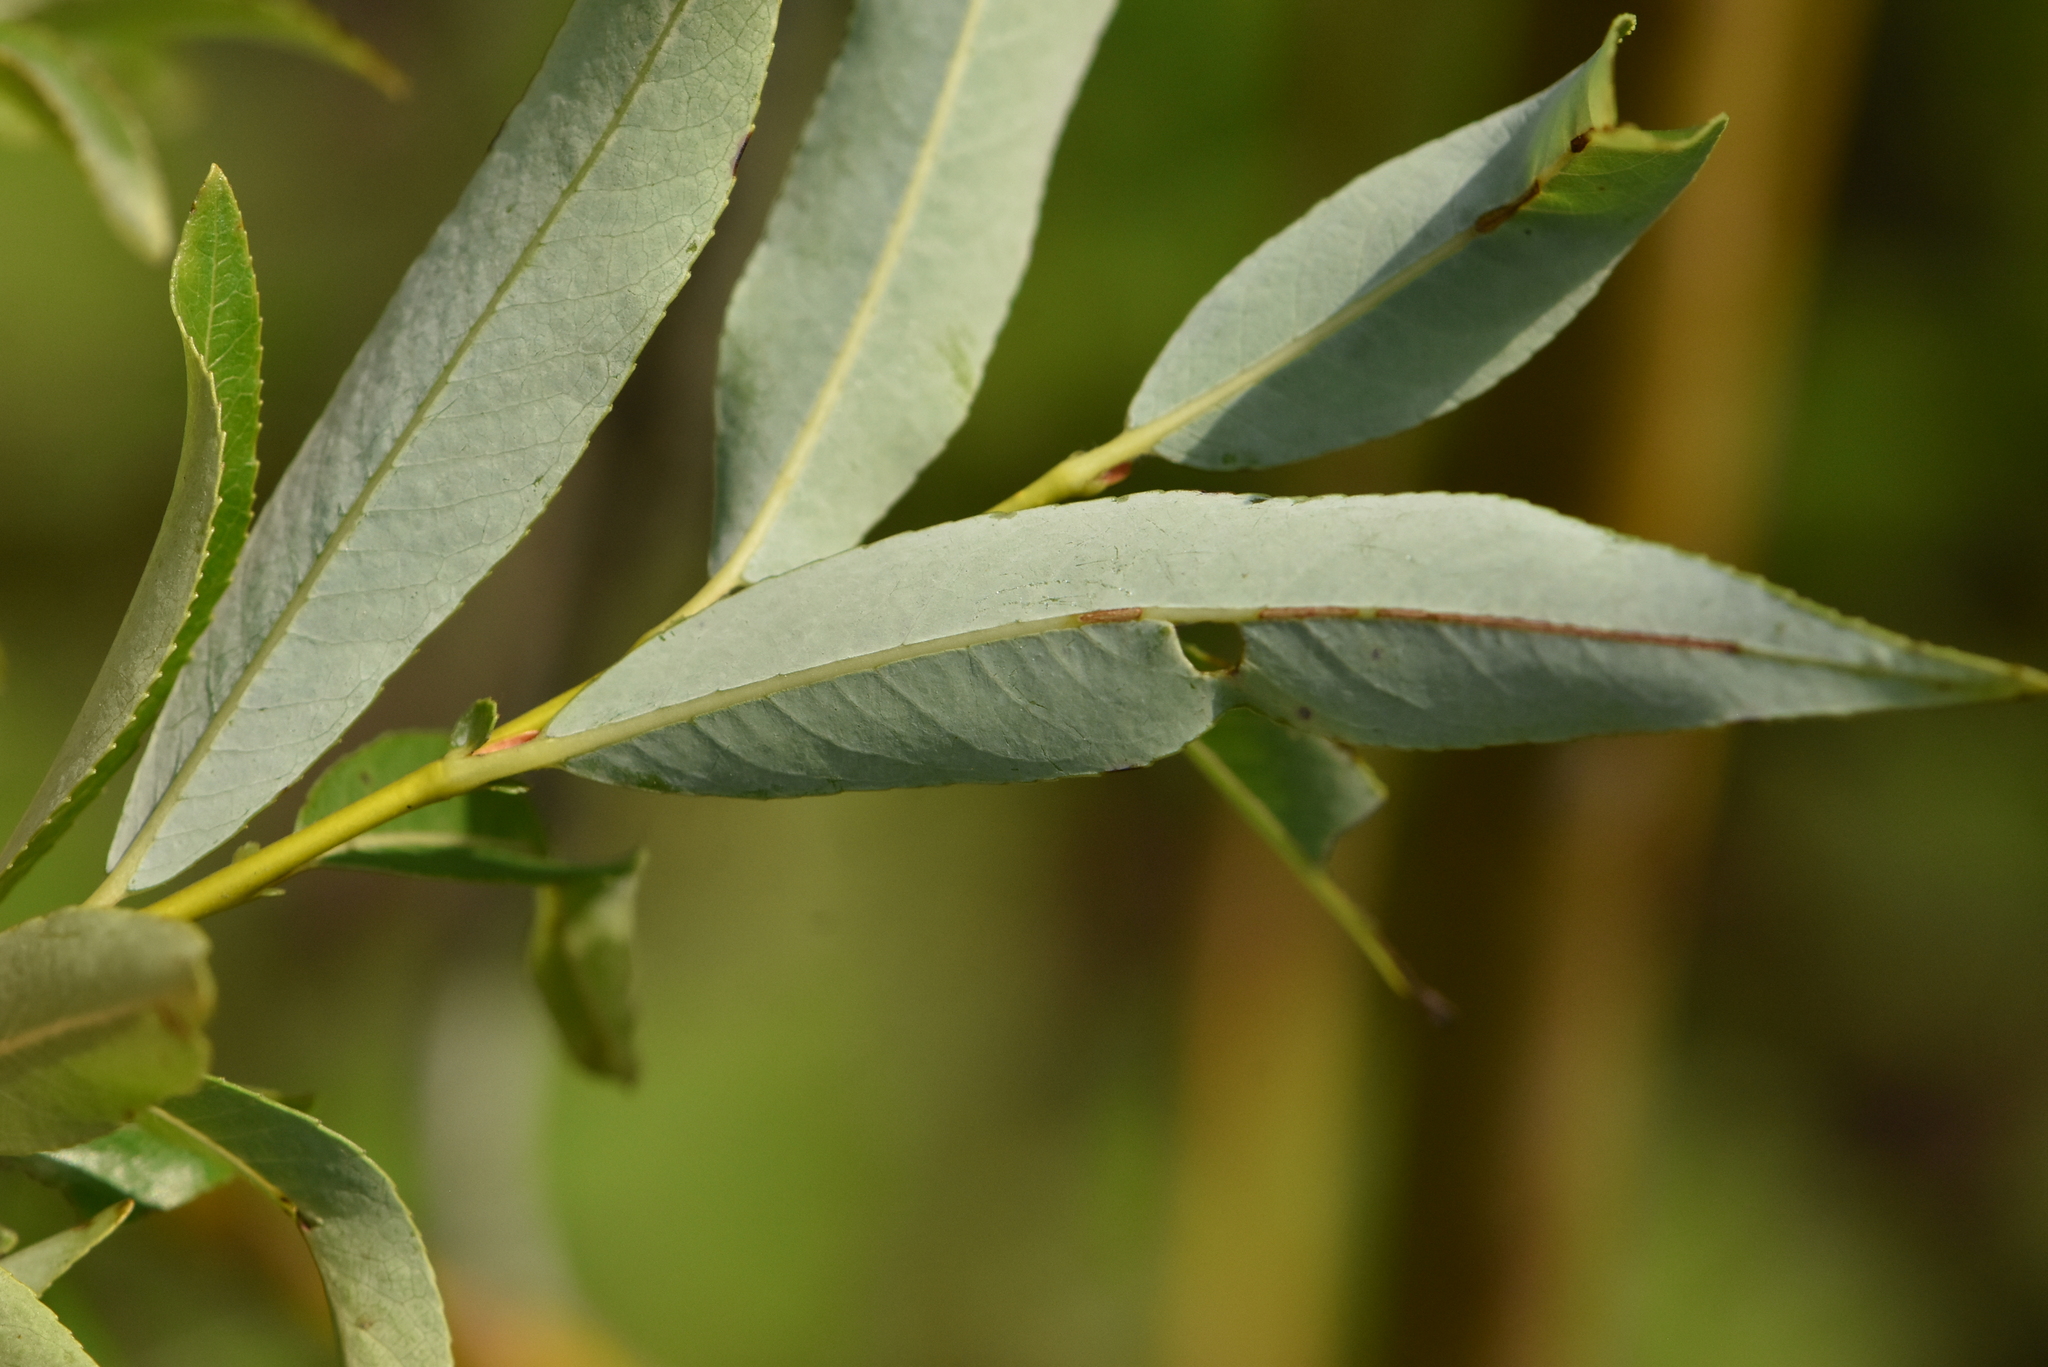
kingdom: Plantae
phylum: Tracheophyta
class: Magnoliopsida
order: Malpighiales
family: Salicaceae
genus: Salix
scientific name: Salix rorida
